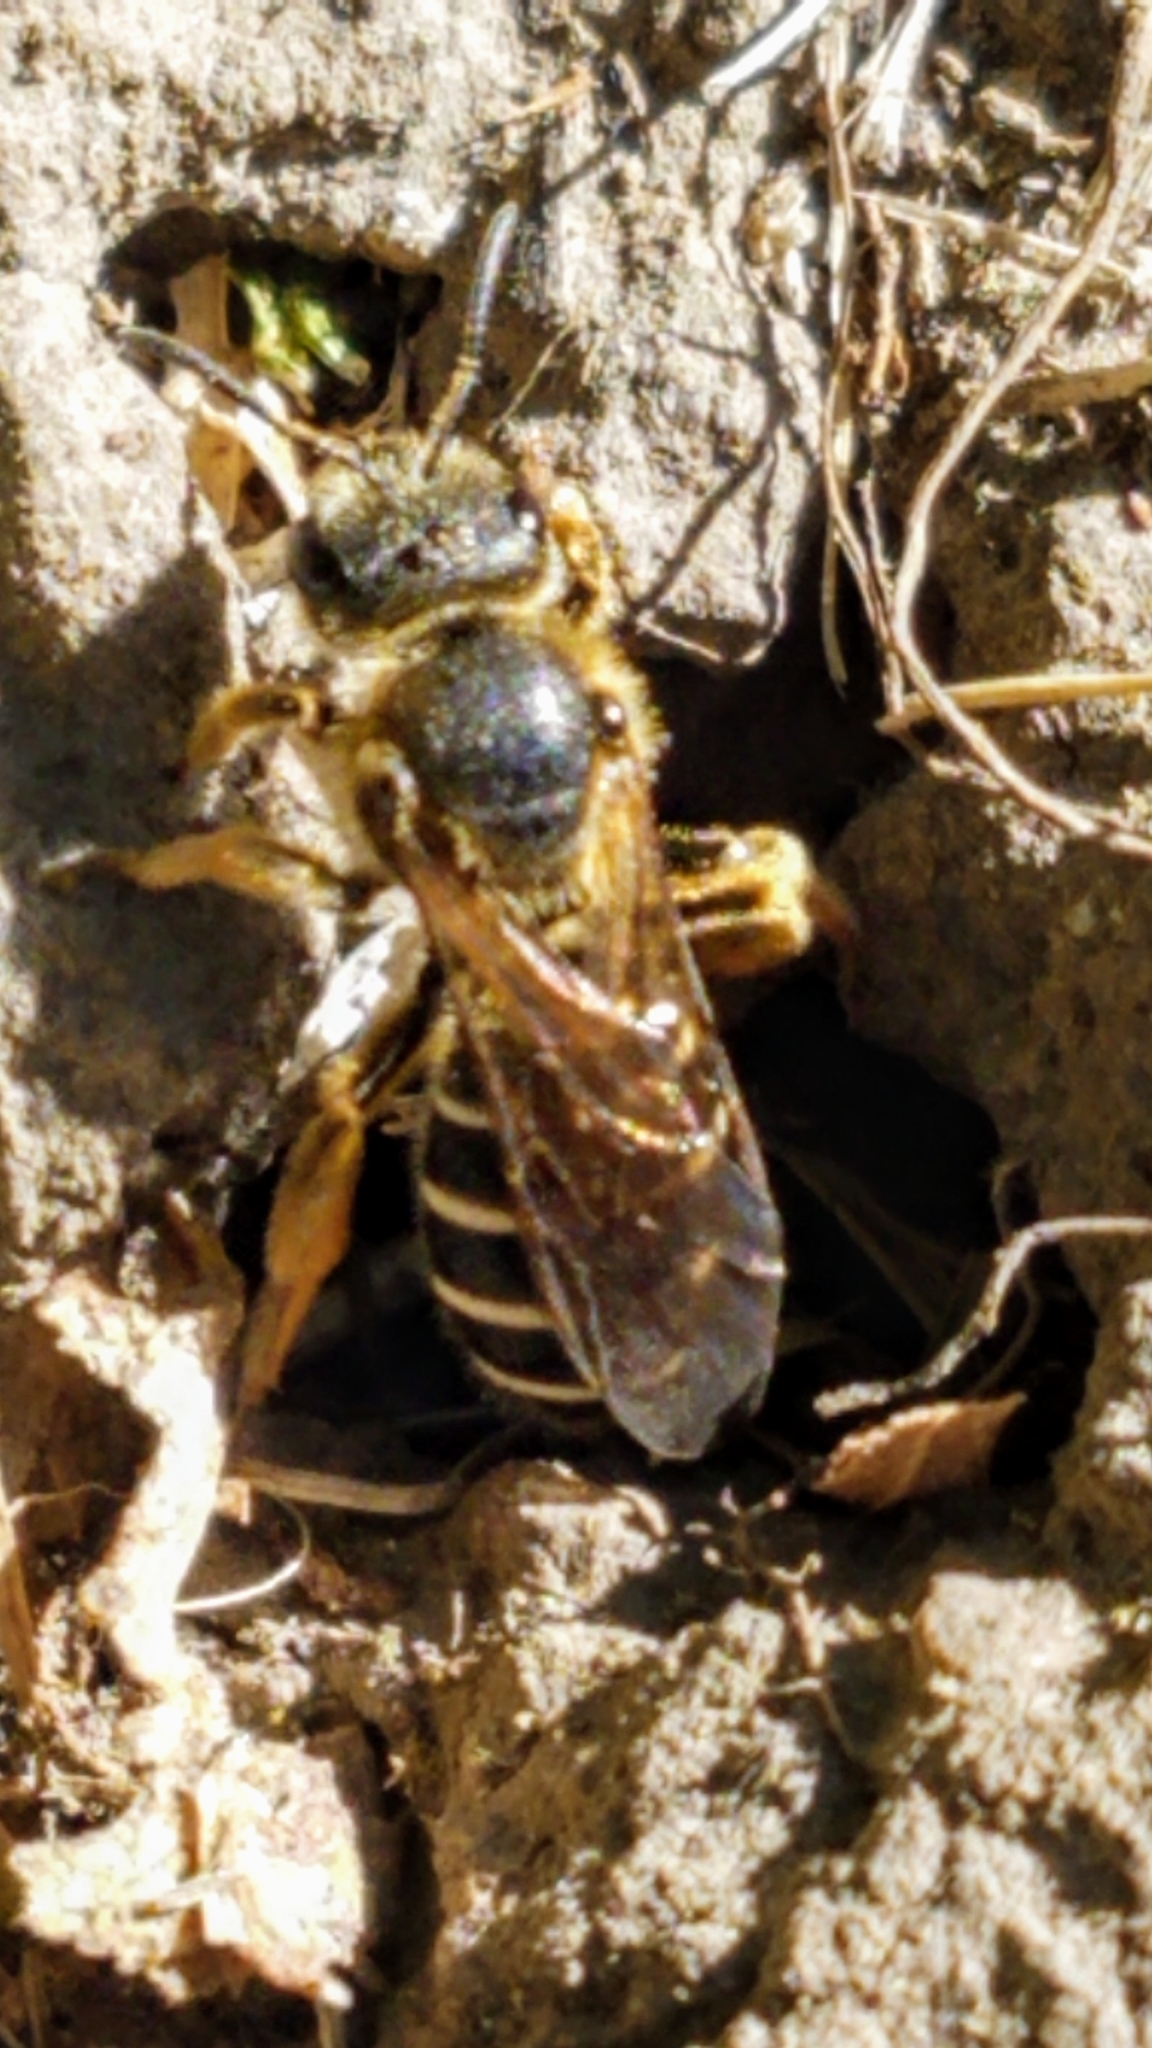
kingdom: Animalia
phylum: Arthropoda
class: Insecta
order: Hymenoptera
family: Halictidae
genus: Halictus
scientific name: Halictus rubicundus
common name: Orange-legged furrow bee
